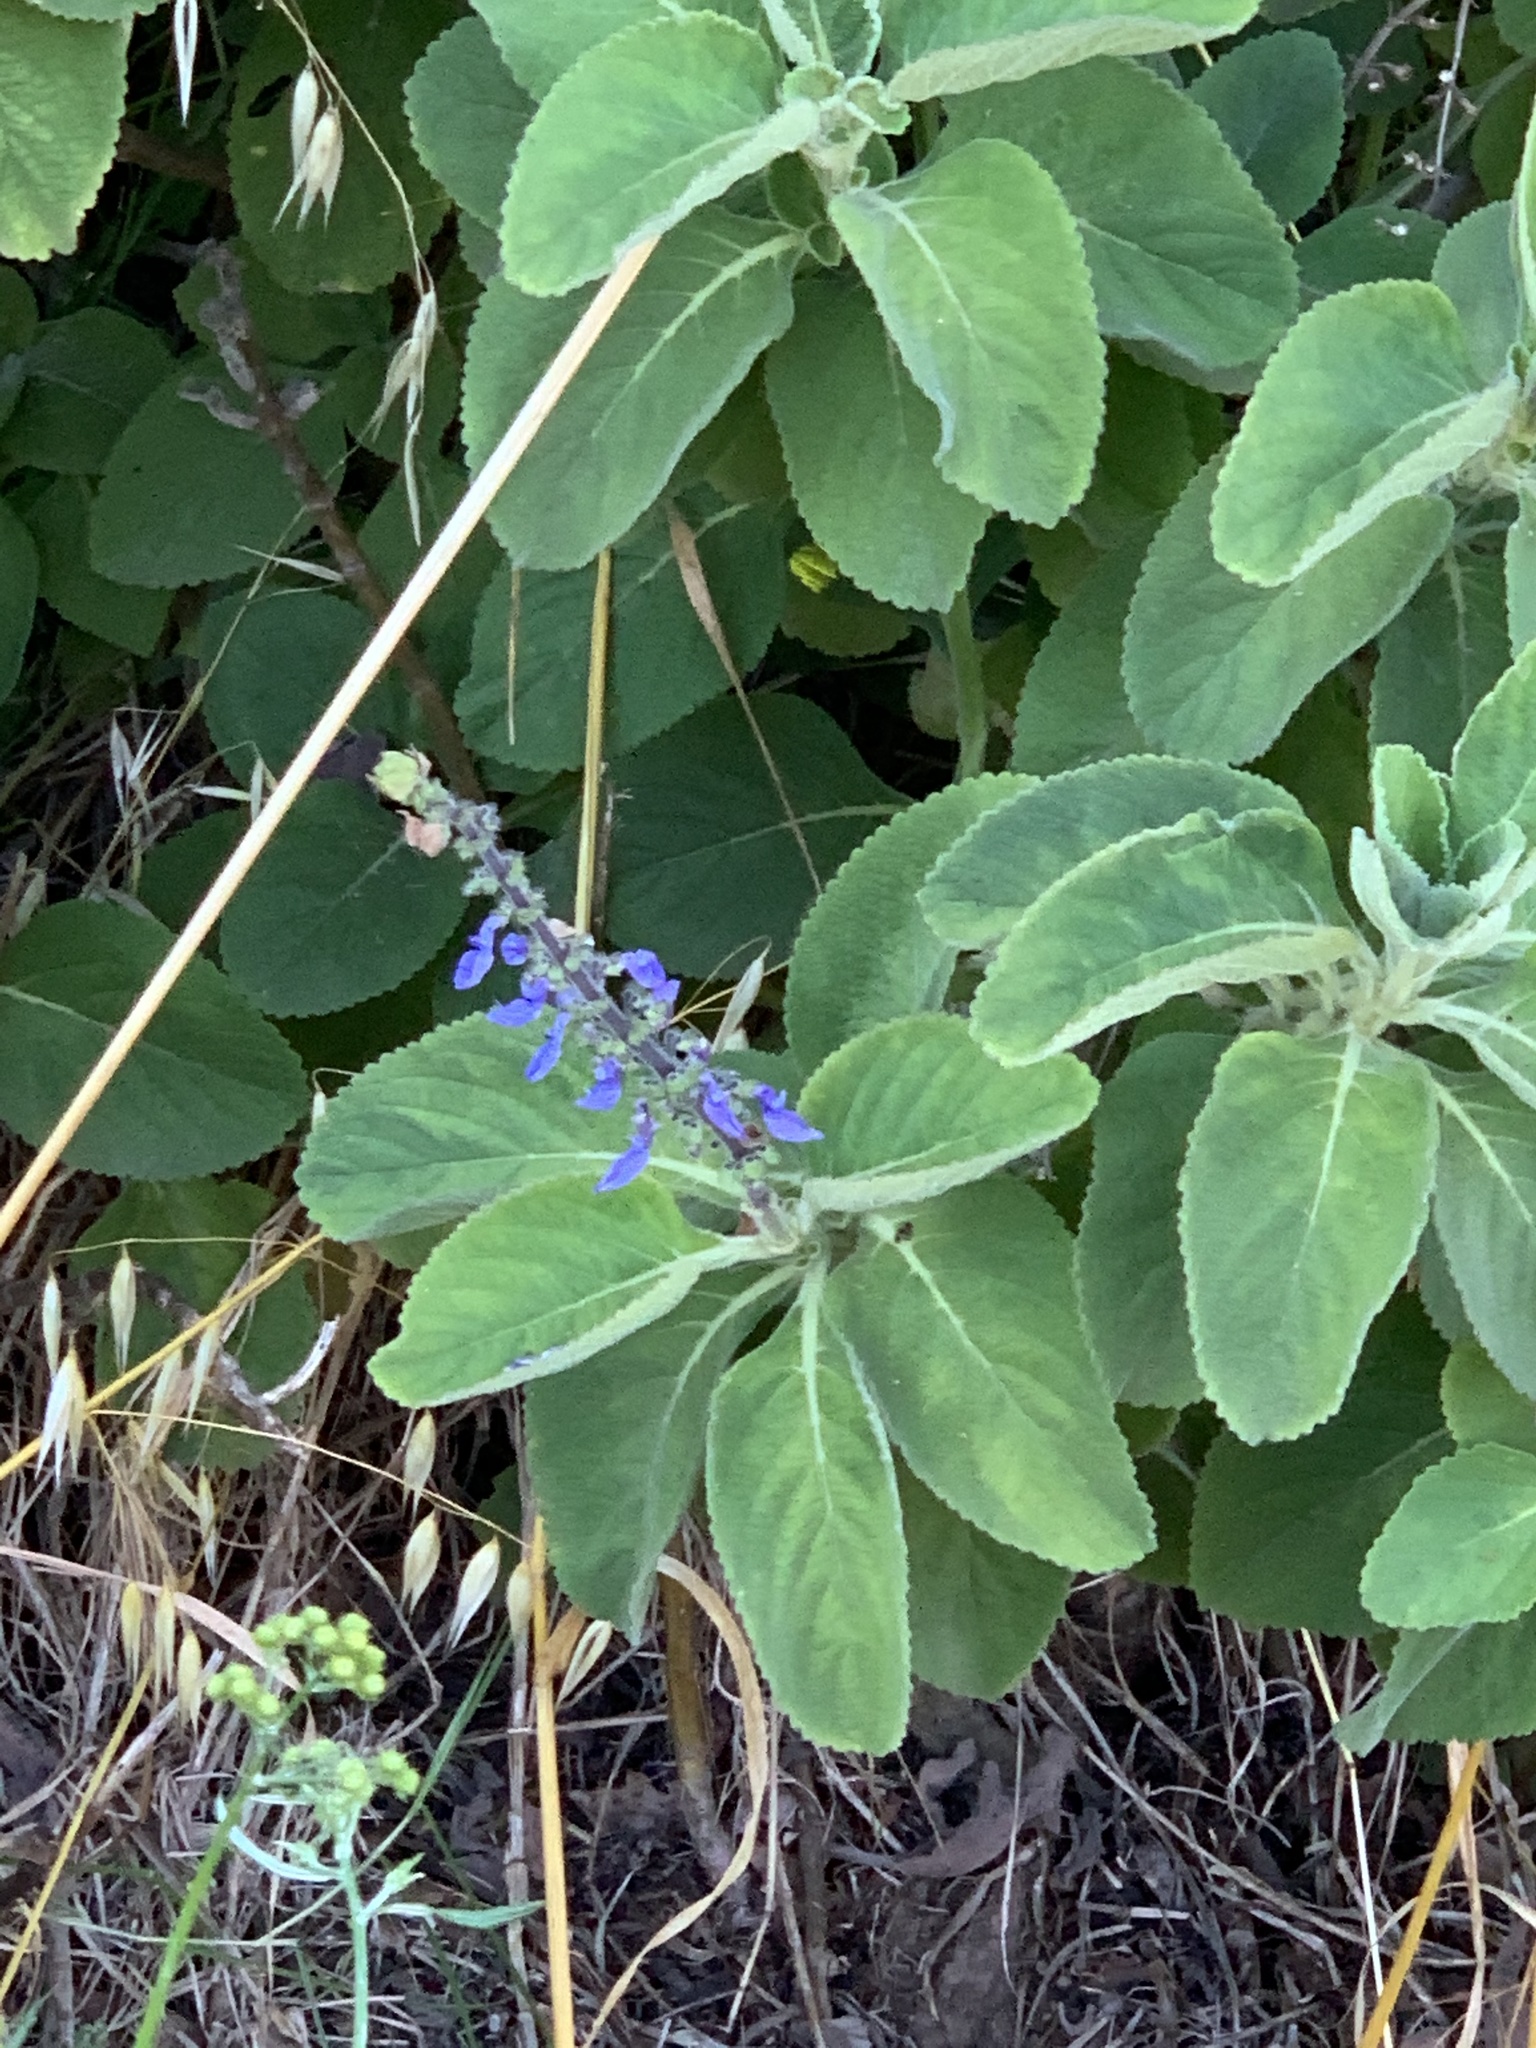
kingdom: Plantae
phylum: Tracheophyta
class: Magnoliopsida
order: Lamiales
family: Lamiaceae
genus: Coleus
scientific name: Coleus barbatus
